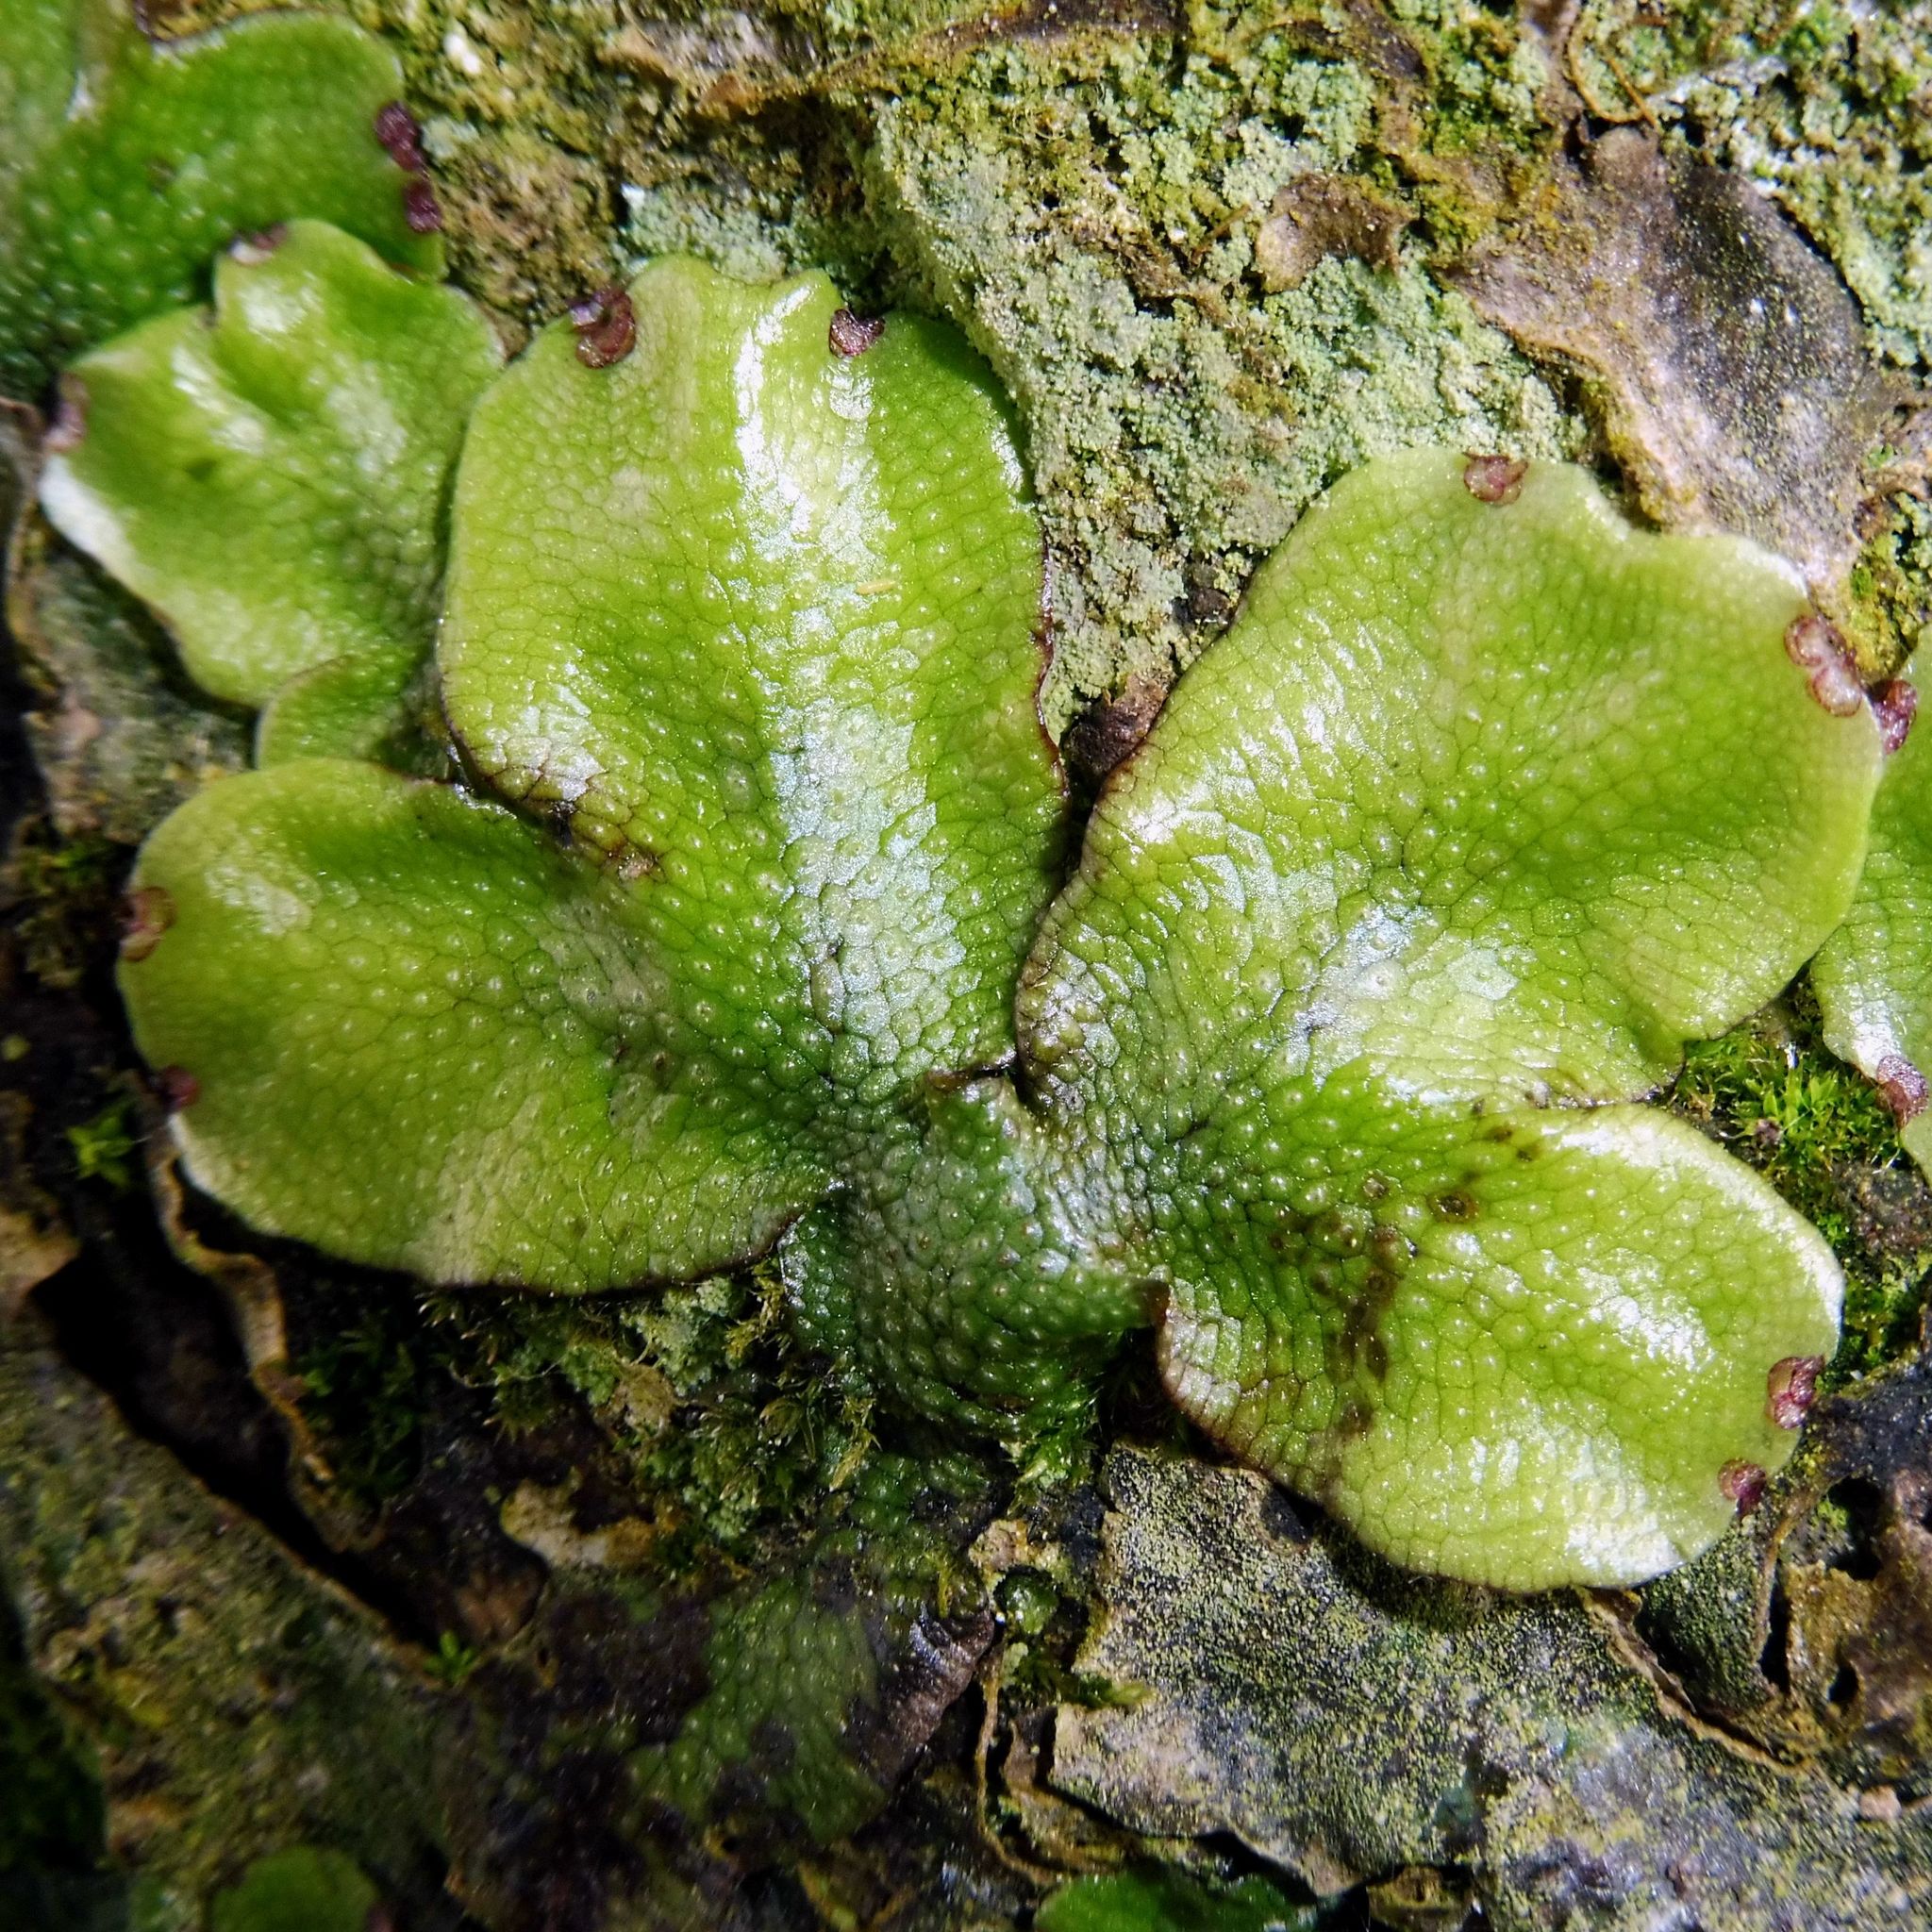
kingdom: Plantae
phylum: Marchantiophyta
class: Marchantiopsida
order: Marchantiales
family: Conocephalaceae
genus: Conocephalum
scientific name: Conocephalum conicum
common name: Great scented liverwort
